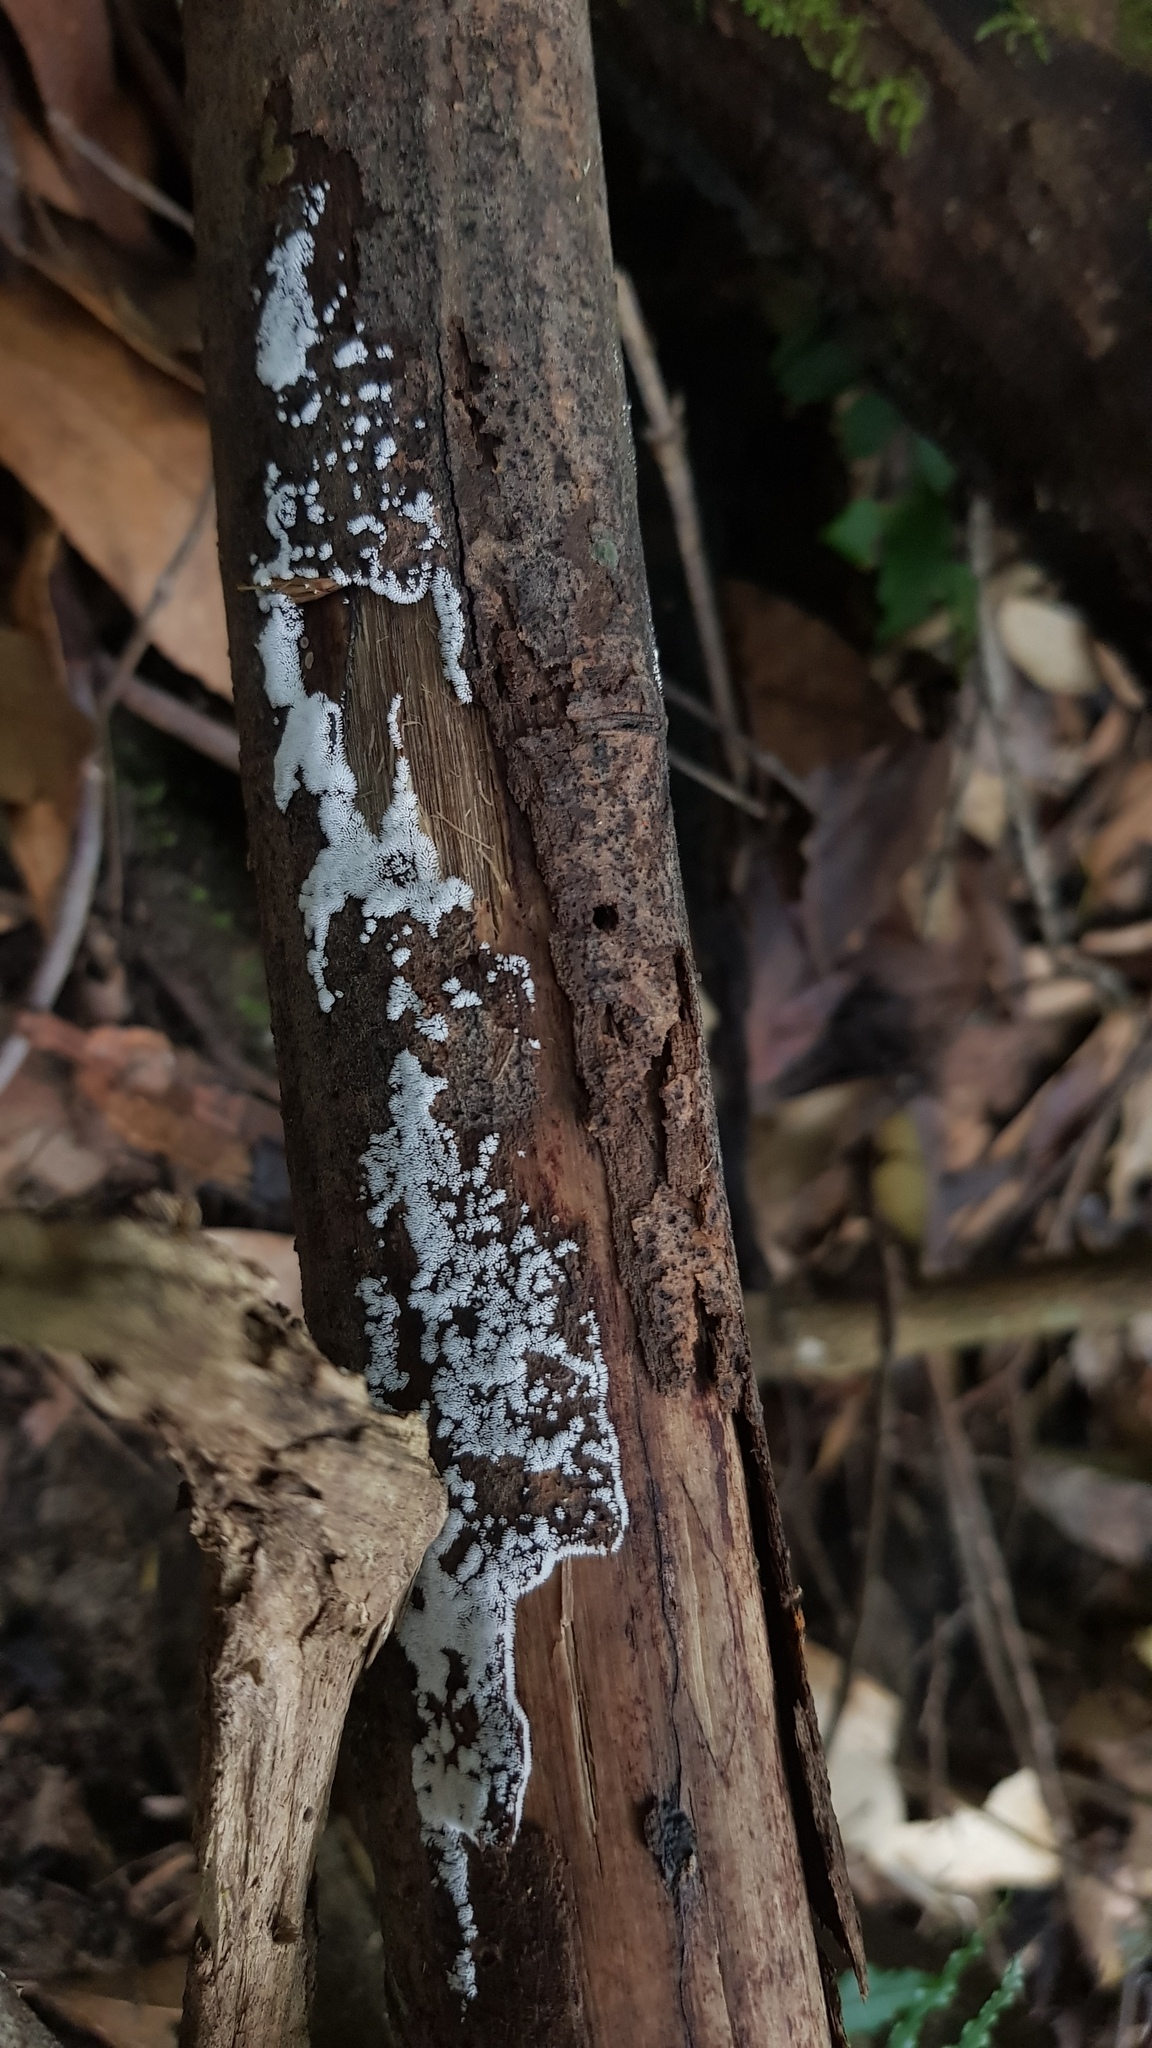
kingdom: Protozoa
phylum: Mycetozoa
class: Protosteliomycetes
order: Ceratiomyxales
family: Ceratiomyxaceae
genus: Ceratiomyxa
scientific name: Ceratiomyxa fruticulosa
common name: Honeycomb coral slime mold
